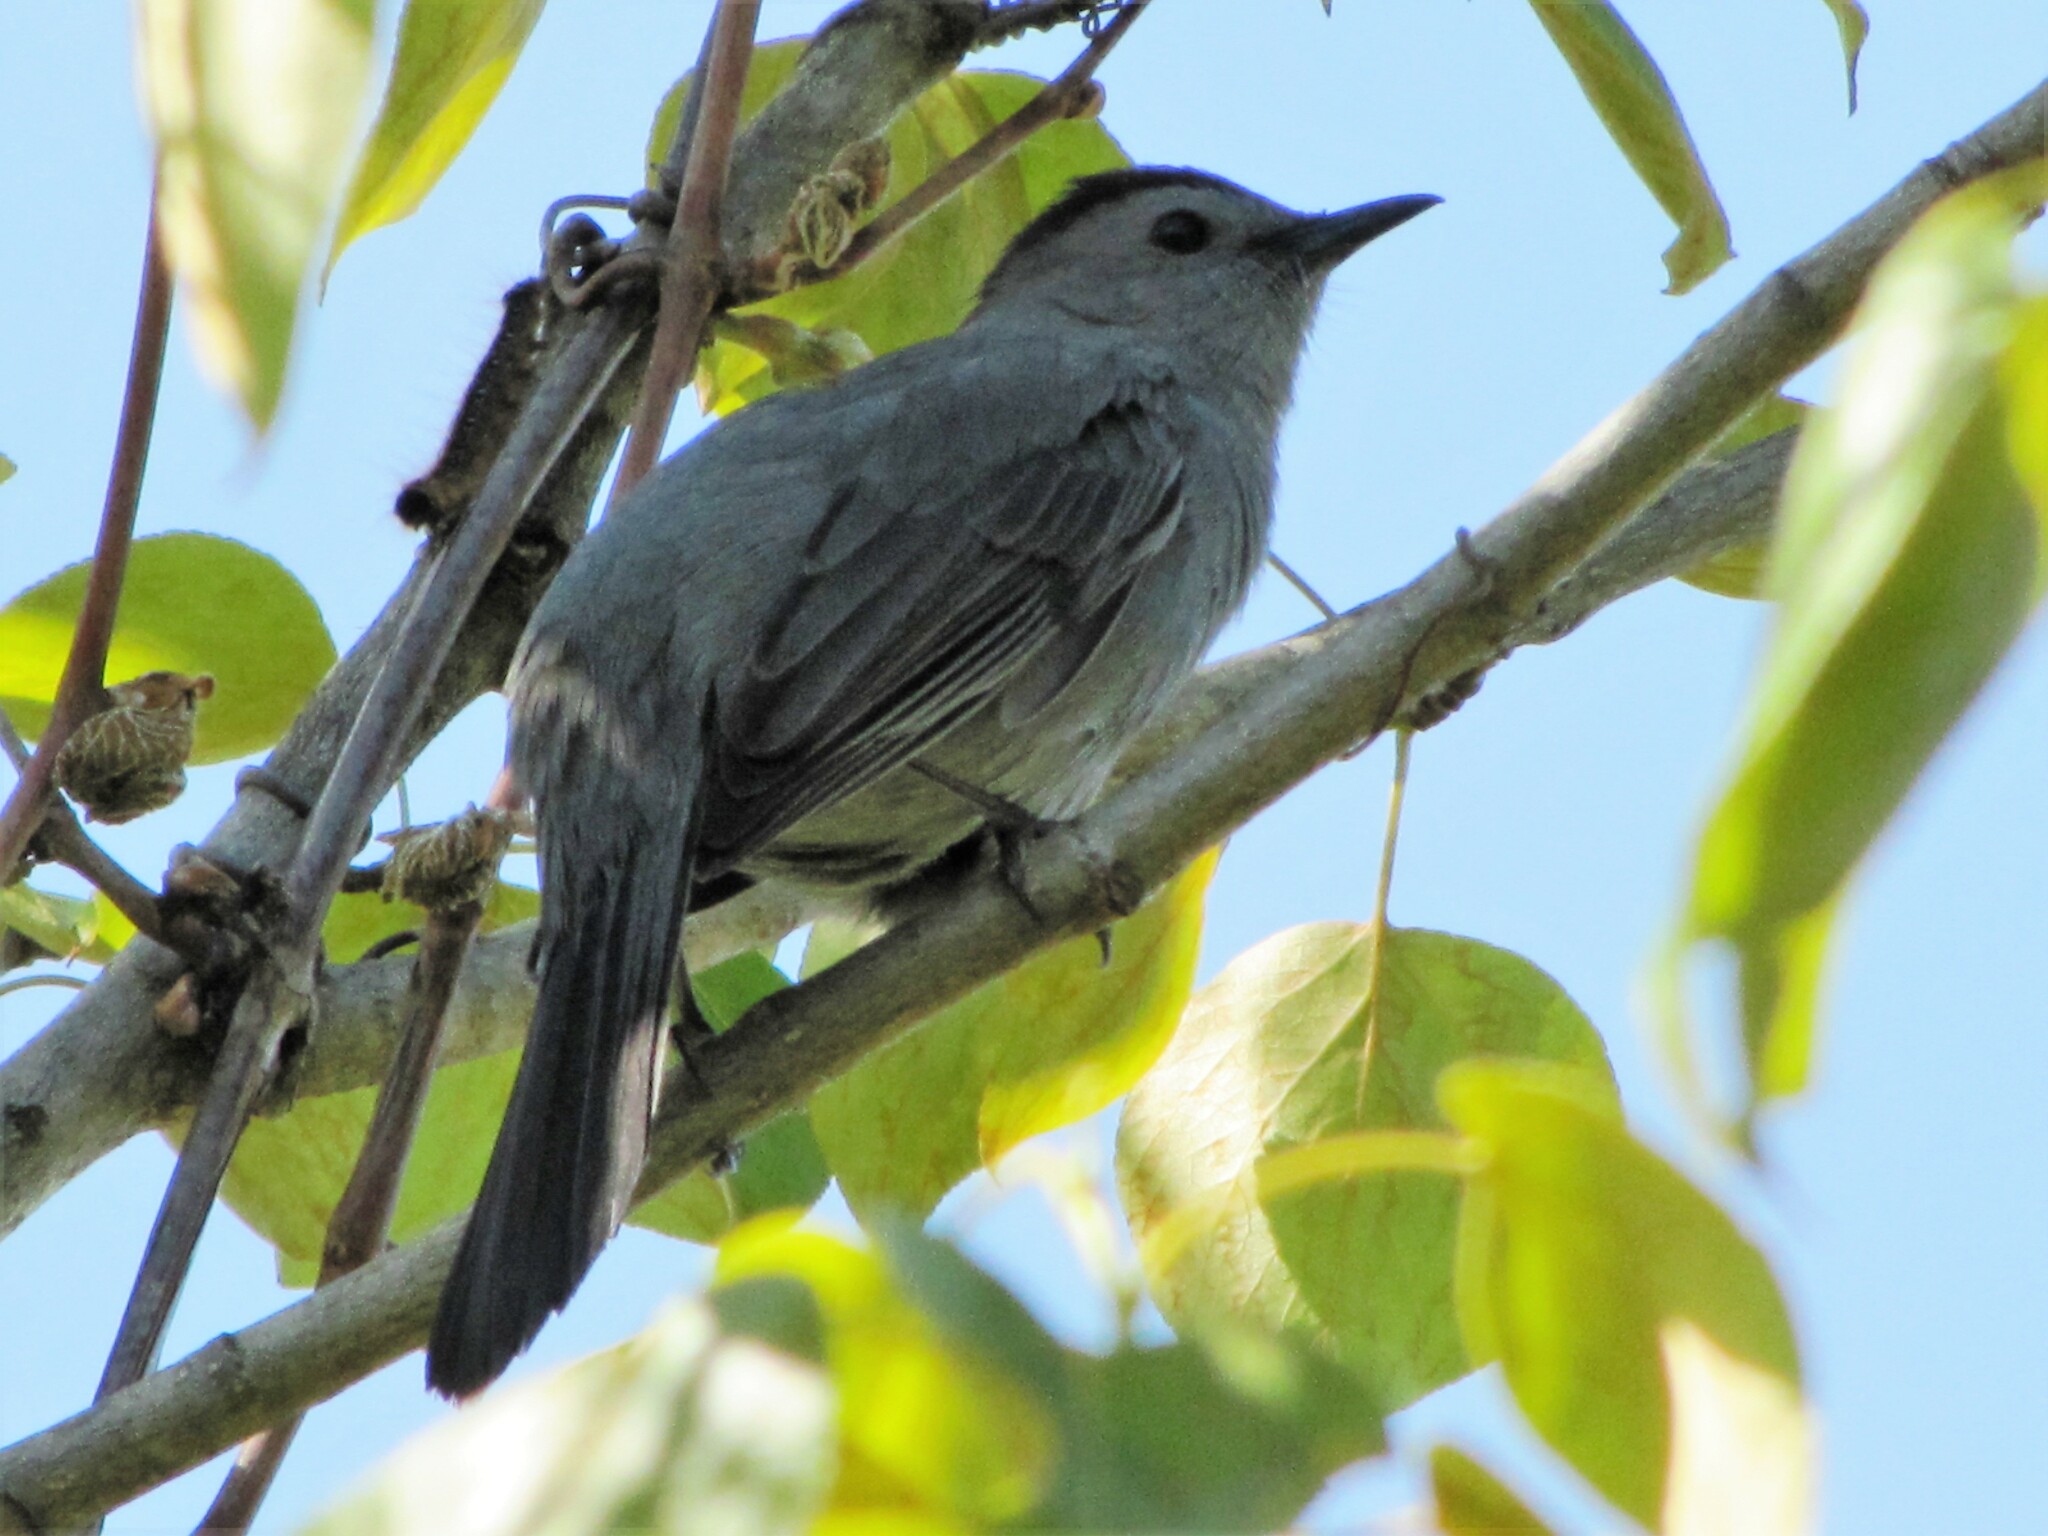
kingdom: Animalia
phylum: Chordata
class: Aves
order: Passeriformes
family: Mimidae
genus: Dumetella
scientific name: Dumetella carolinensis
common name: Gray catbird
